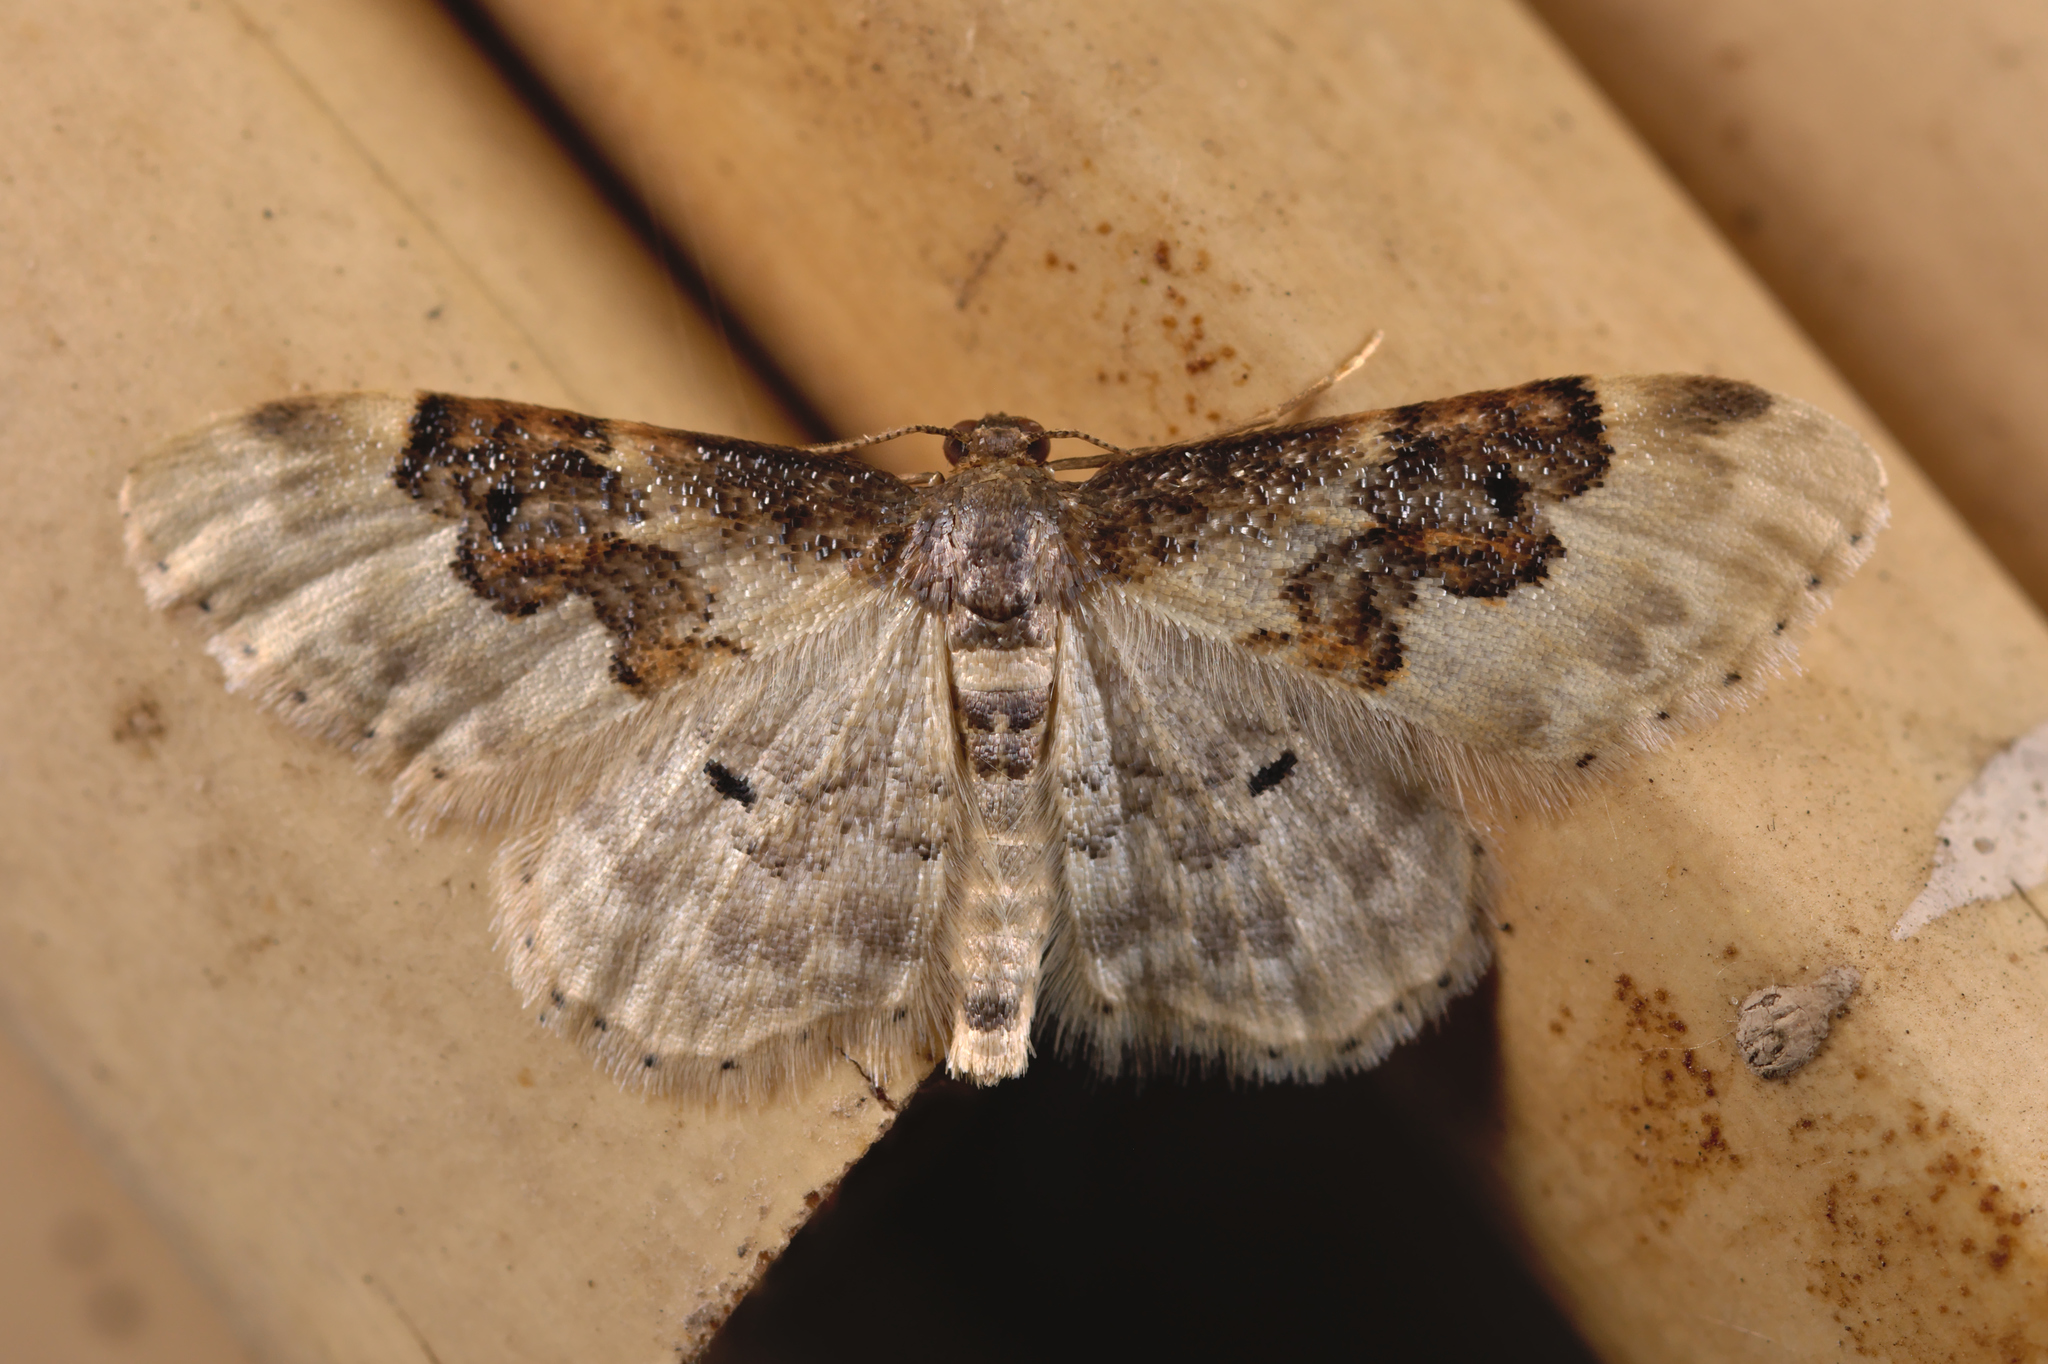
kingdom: Animalia
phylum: Arthropoda
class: Insecta
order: Lepidoptera
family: Geometridae
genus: Idaea
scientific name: Idaea rusticata
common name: Least carpet
